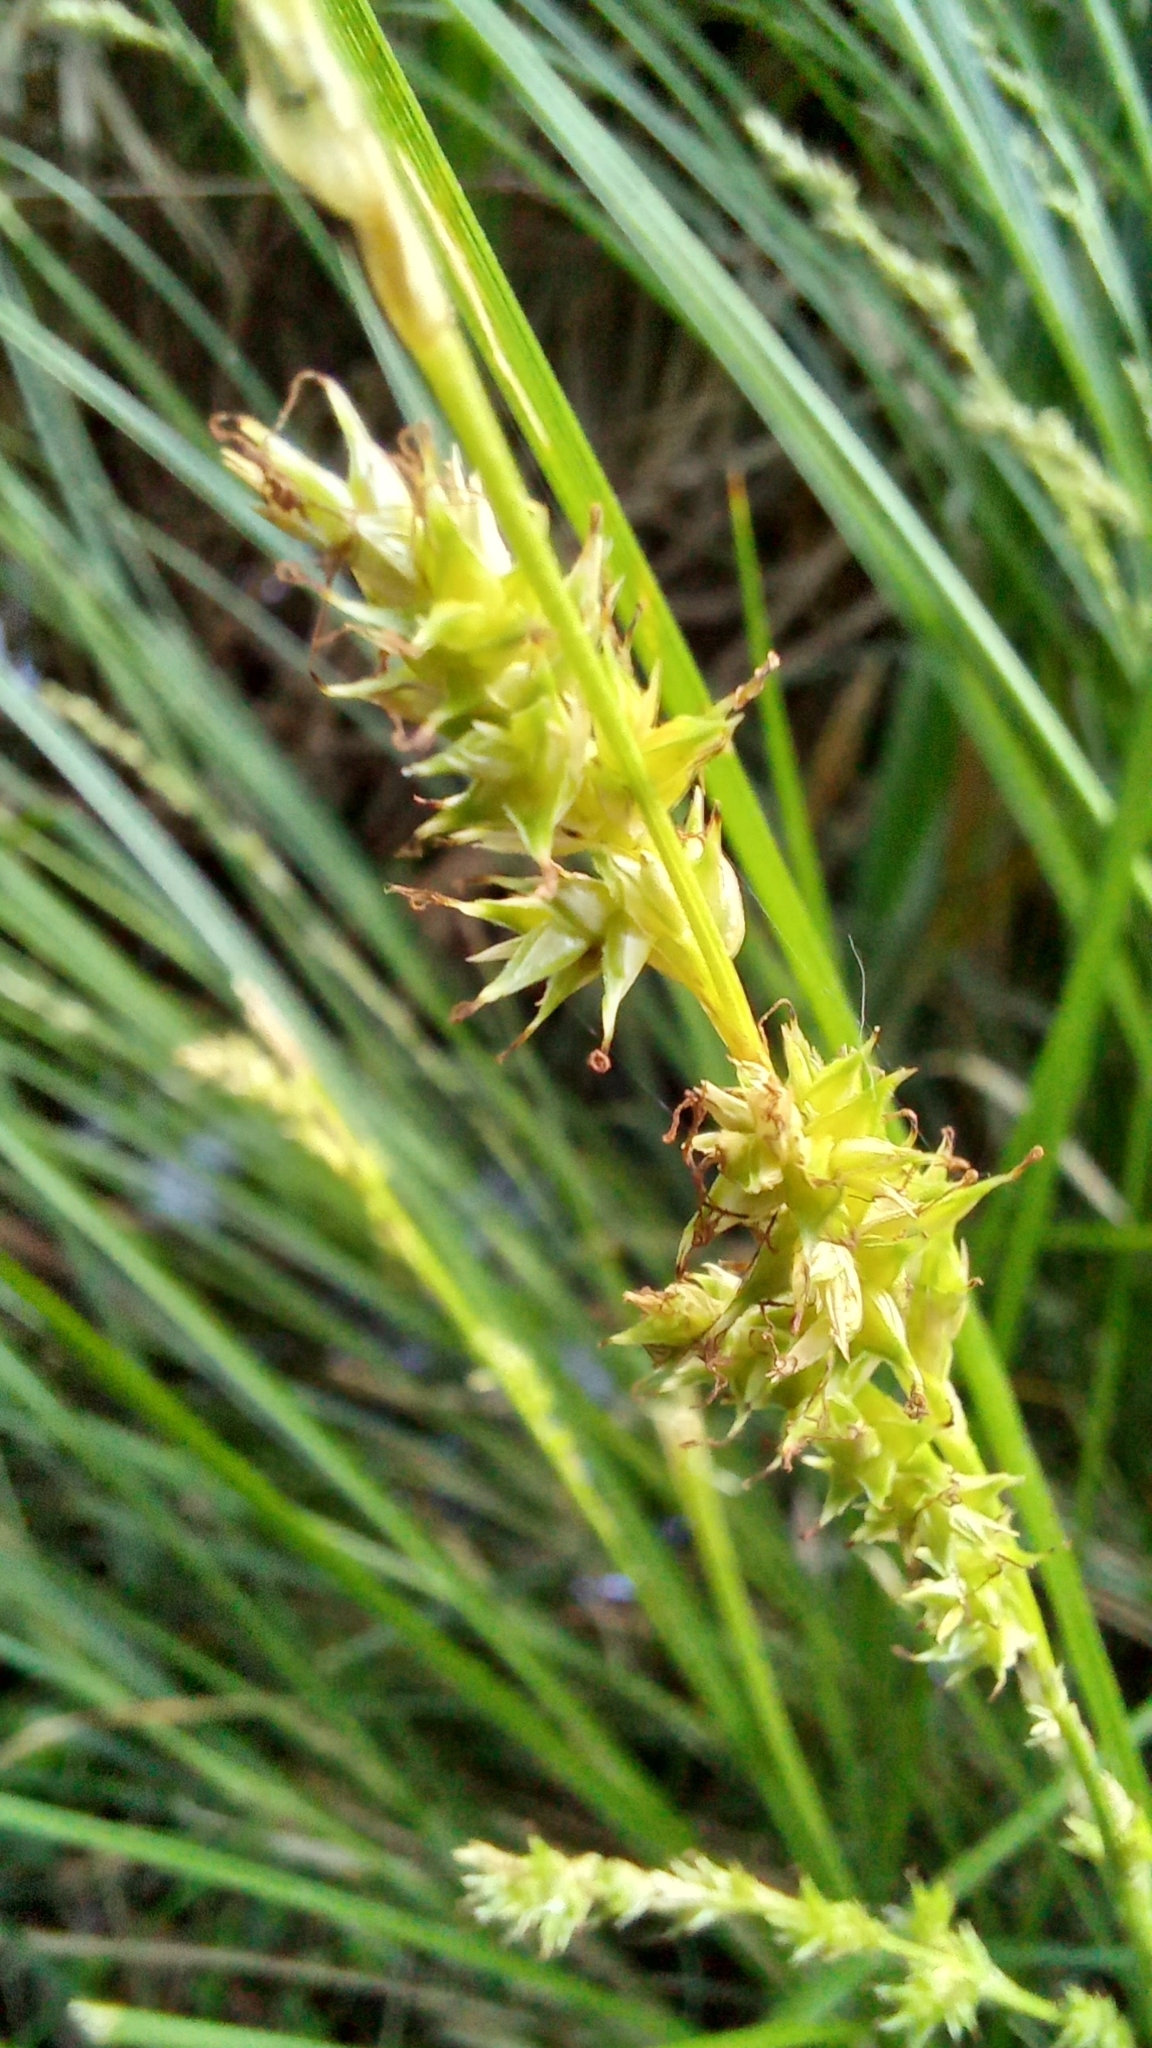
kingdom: Plantae
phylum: Tracheophyta
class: Liliopsida
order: Poales
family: Cyperaceae
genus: Carex
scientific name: Carex paniculata
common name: Greater tussock-sedge
